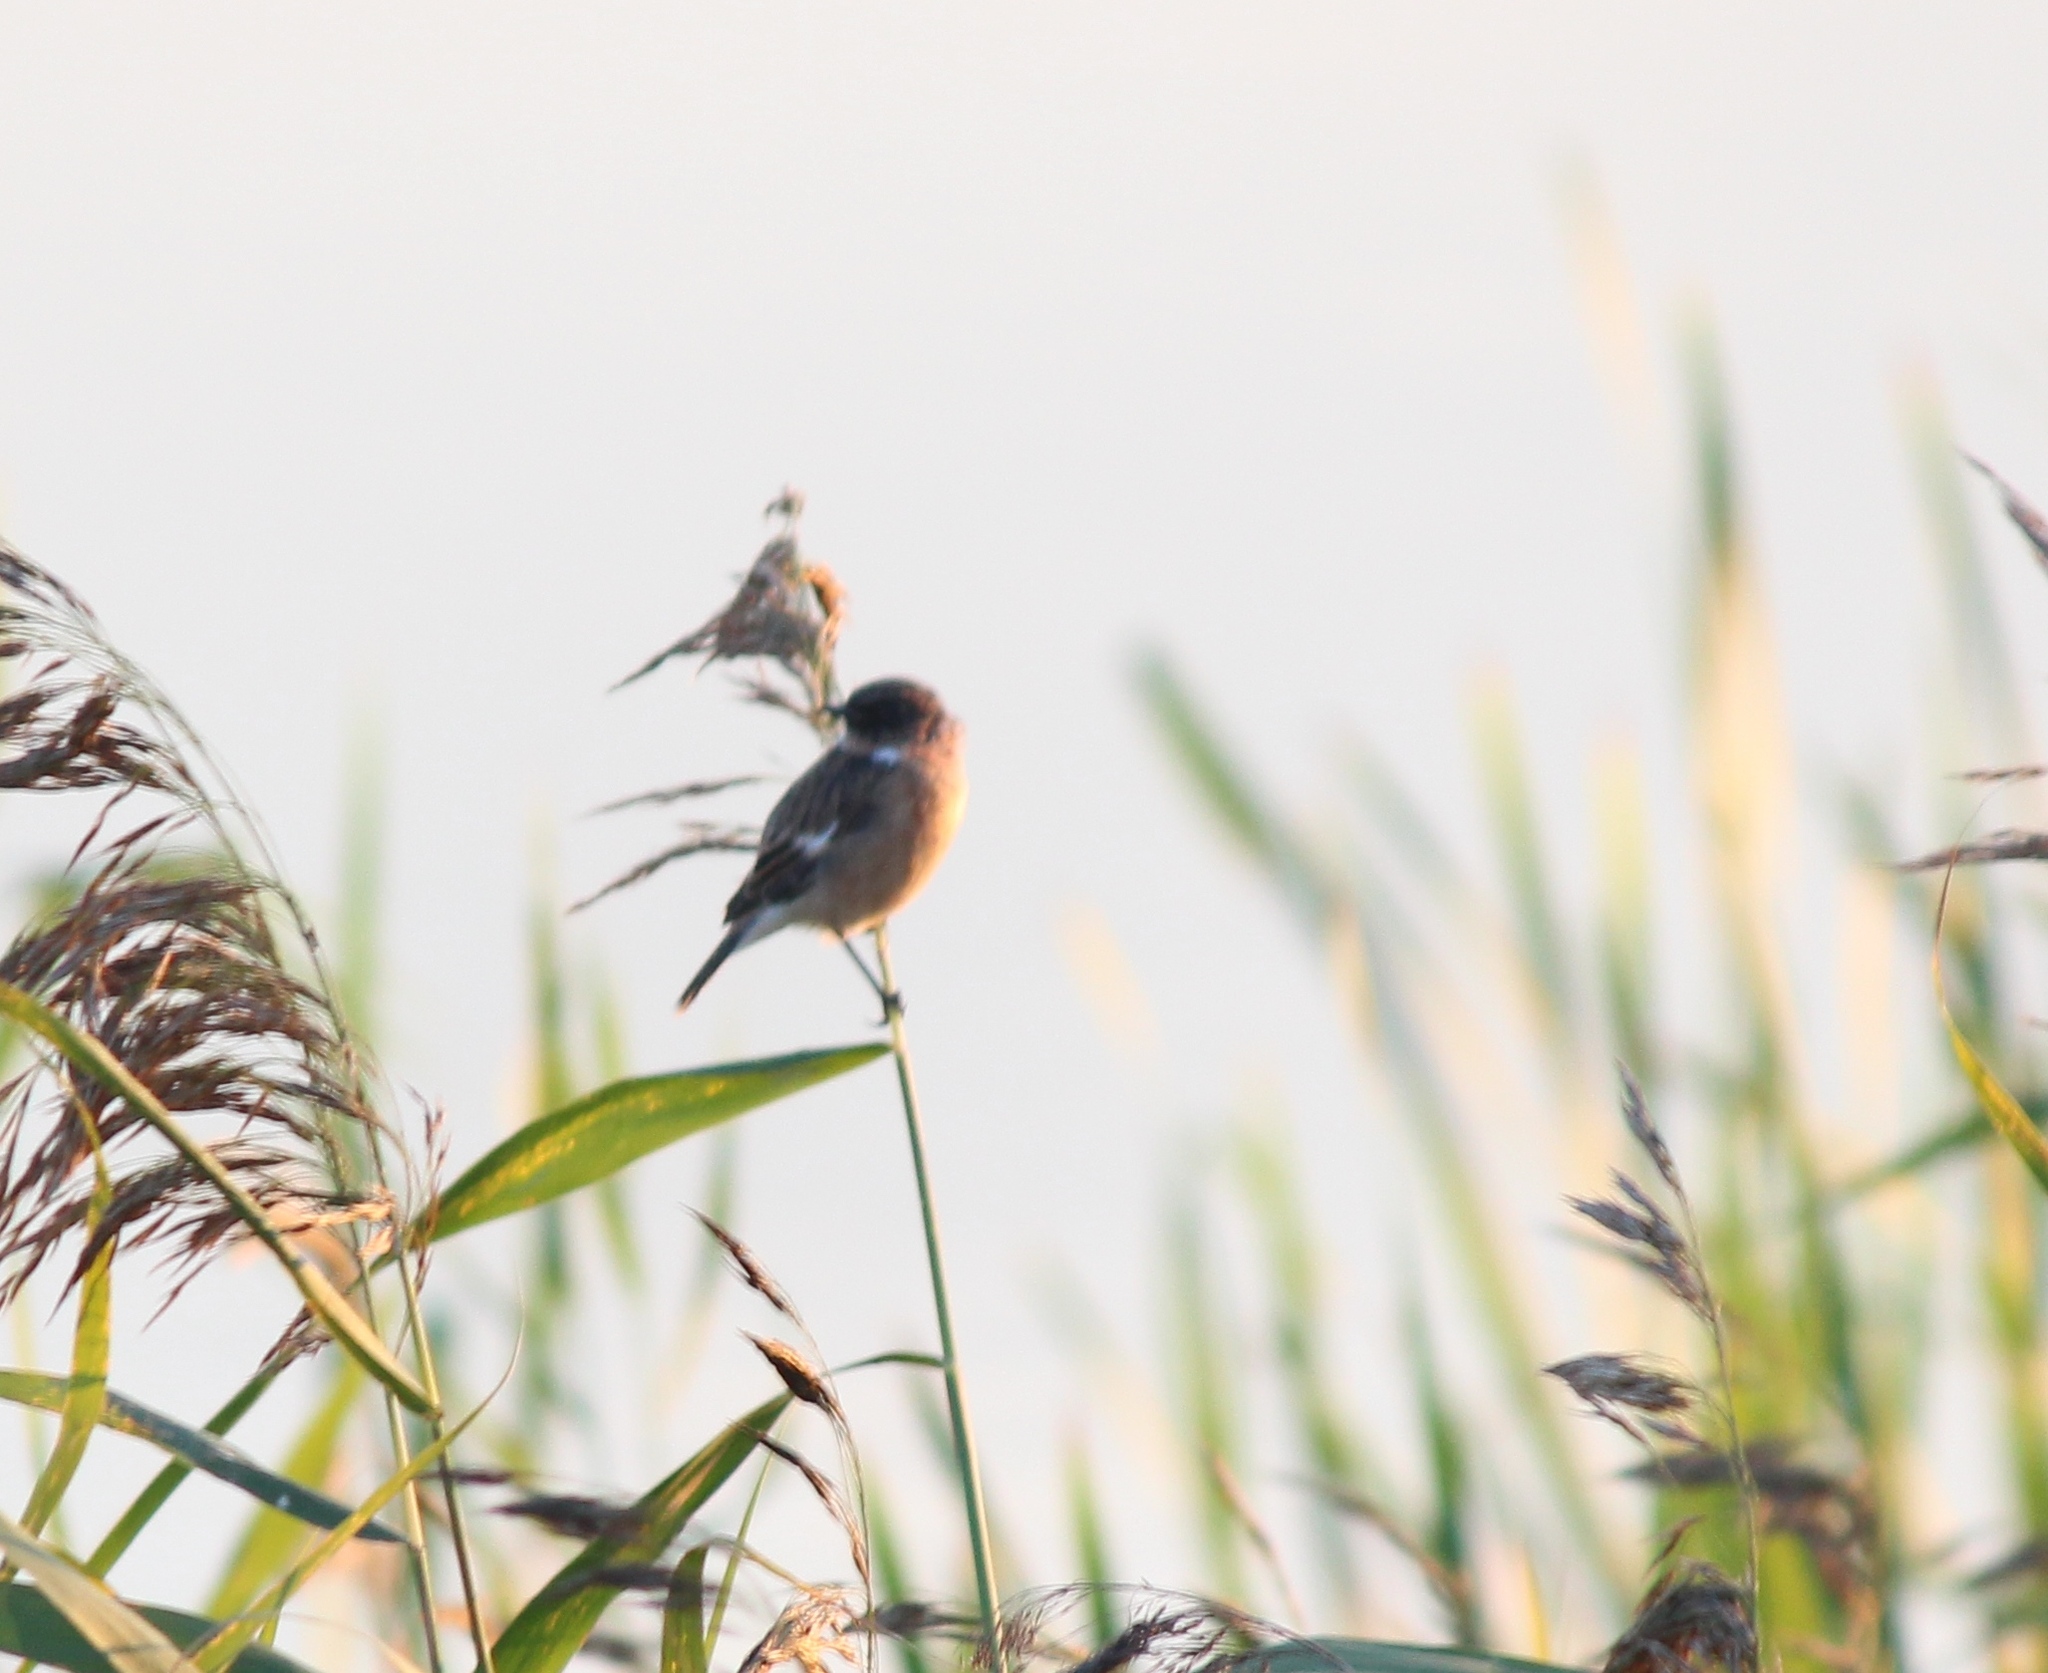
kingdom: Animalia
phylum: Chordata
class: Aves
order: Passeriformes
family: Muscicapidae
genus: Saxicola
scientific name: Saxicola maurus
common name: Siberian stonechat
